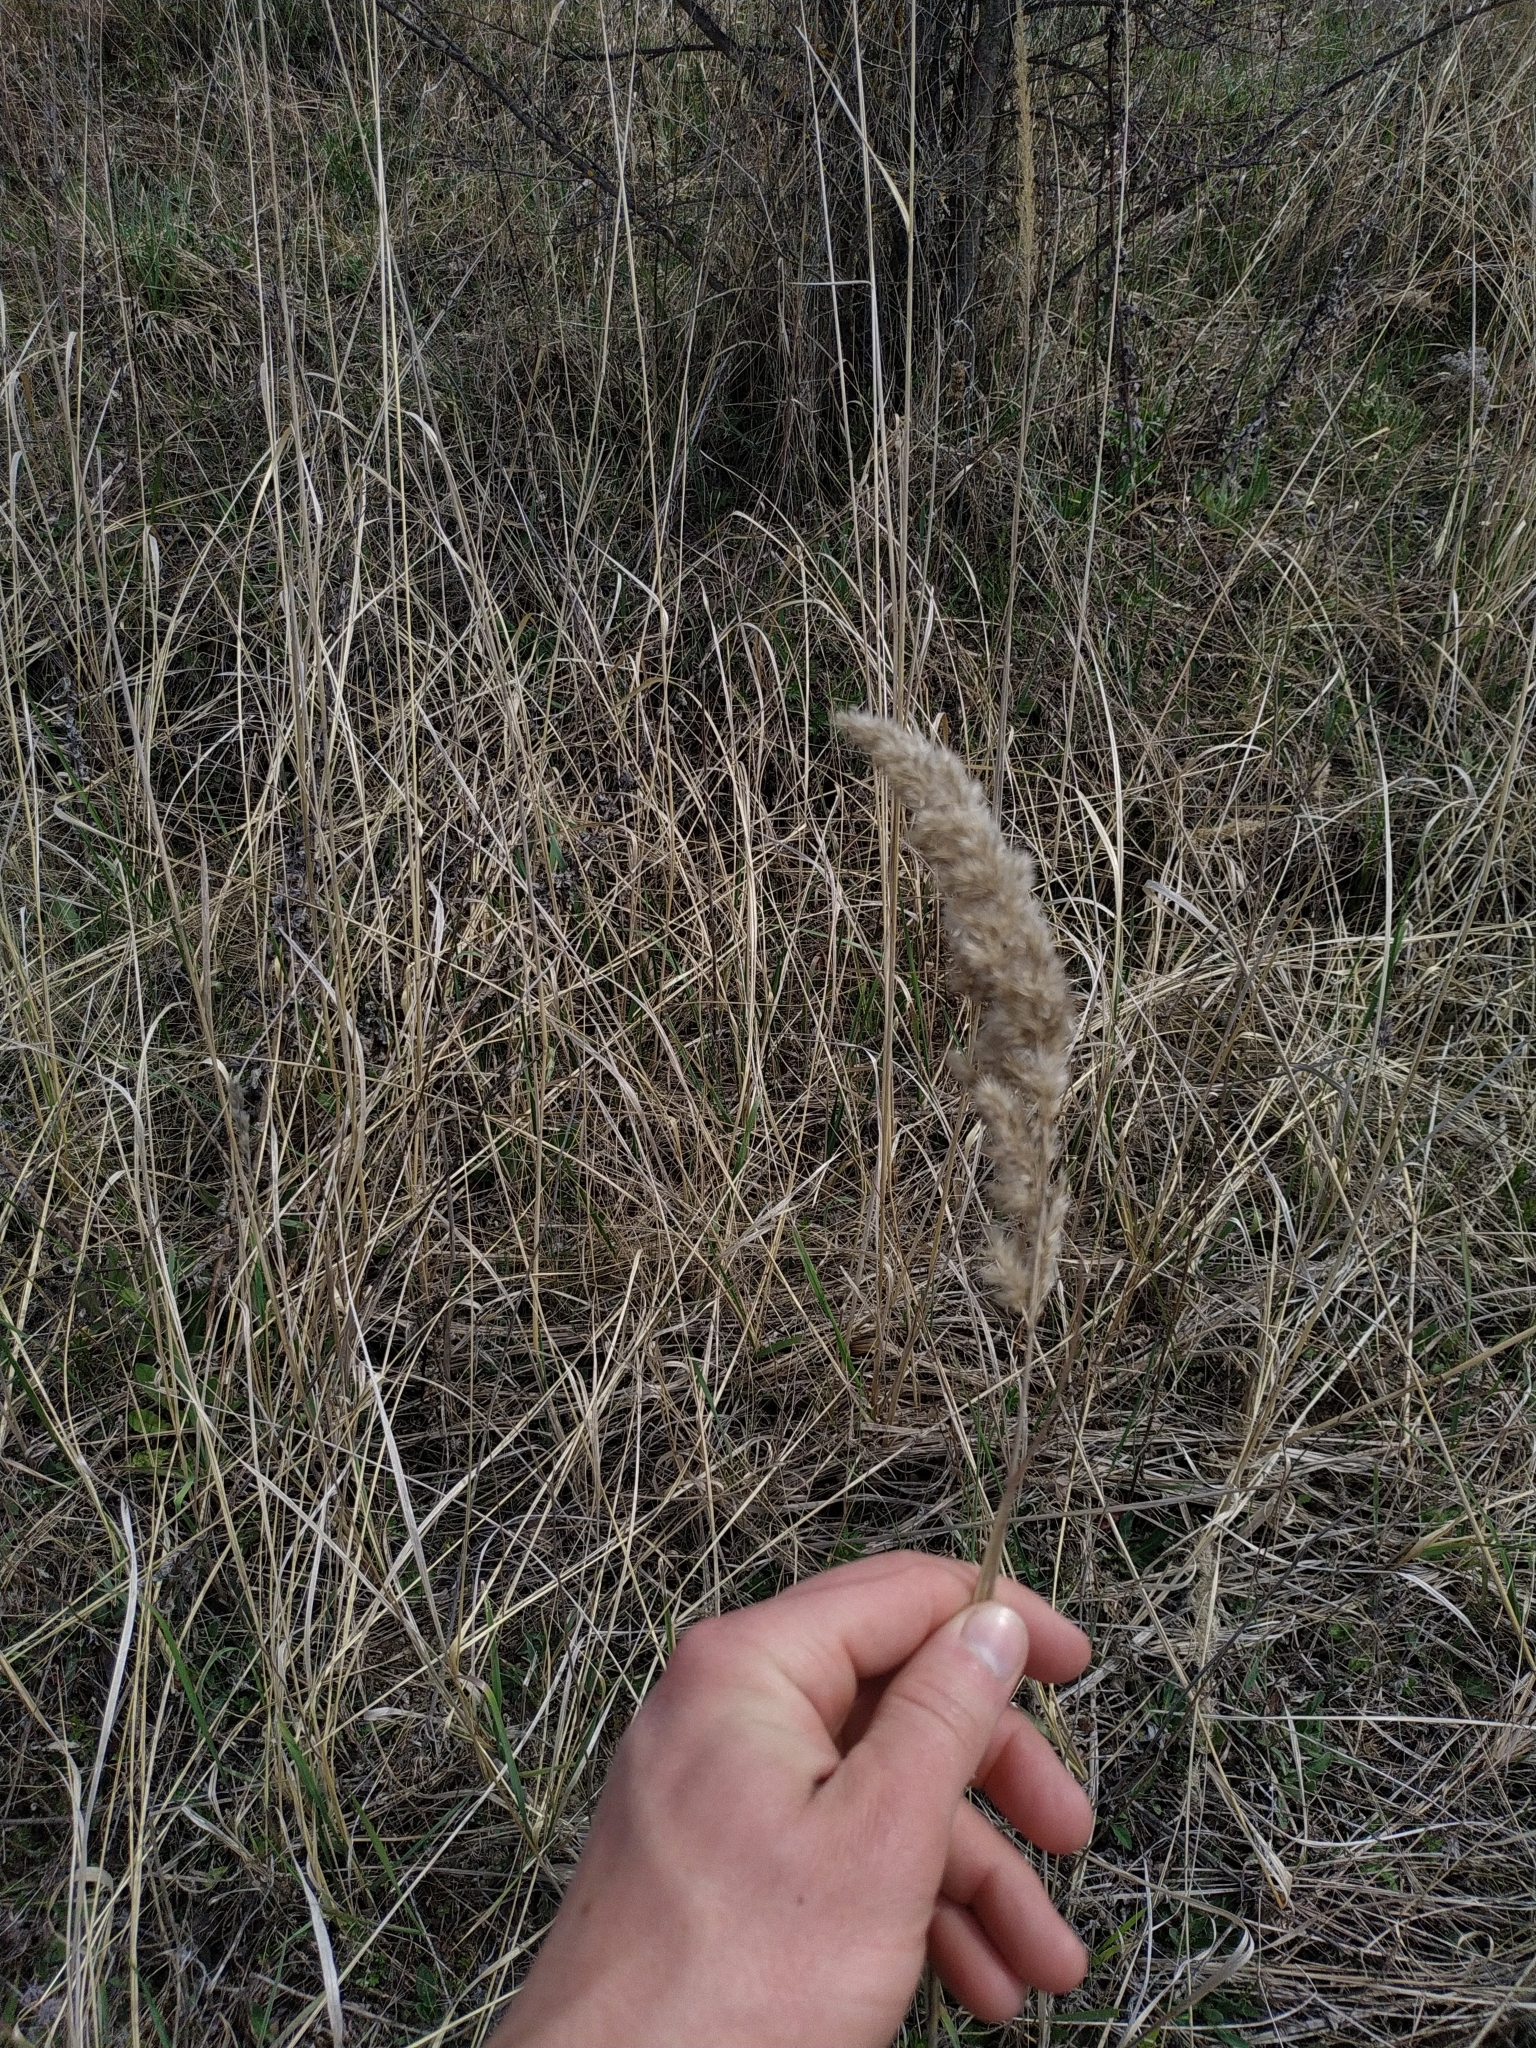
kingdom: Plantae
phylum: Tracheophyta
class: Liliopsida
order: Poales
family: Poaceae
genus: Calamagrostis
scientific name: Calamagrostis epigejos
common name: Wood small-reed
